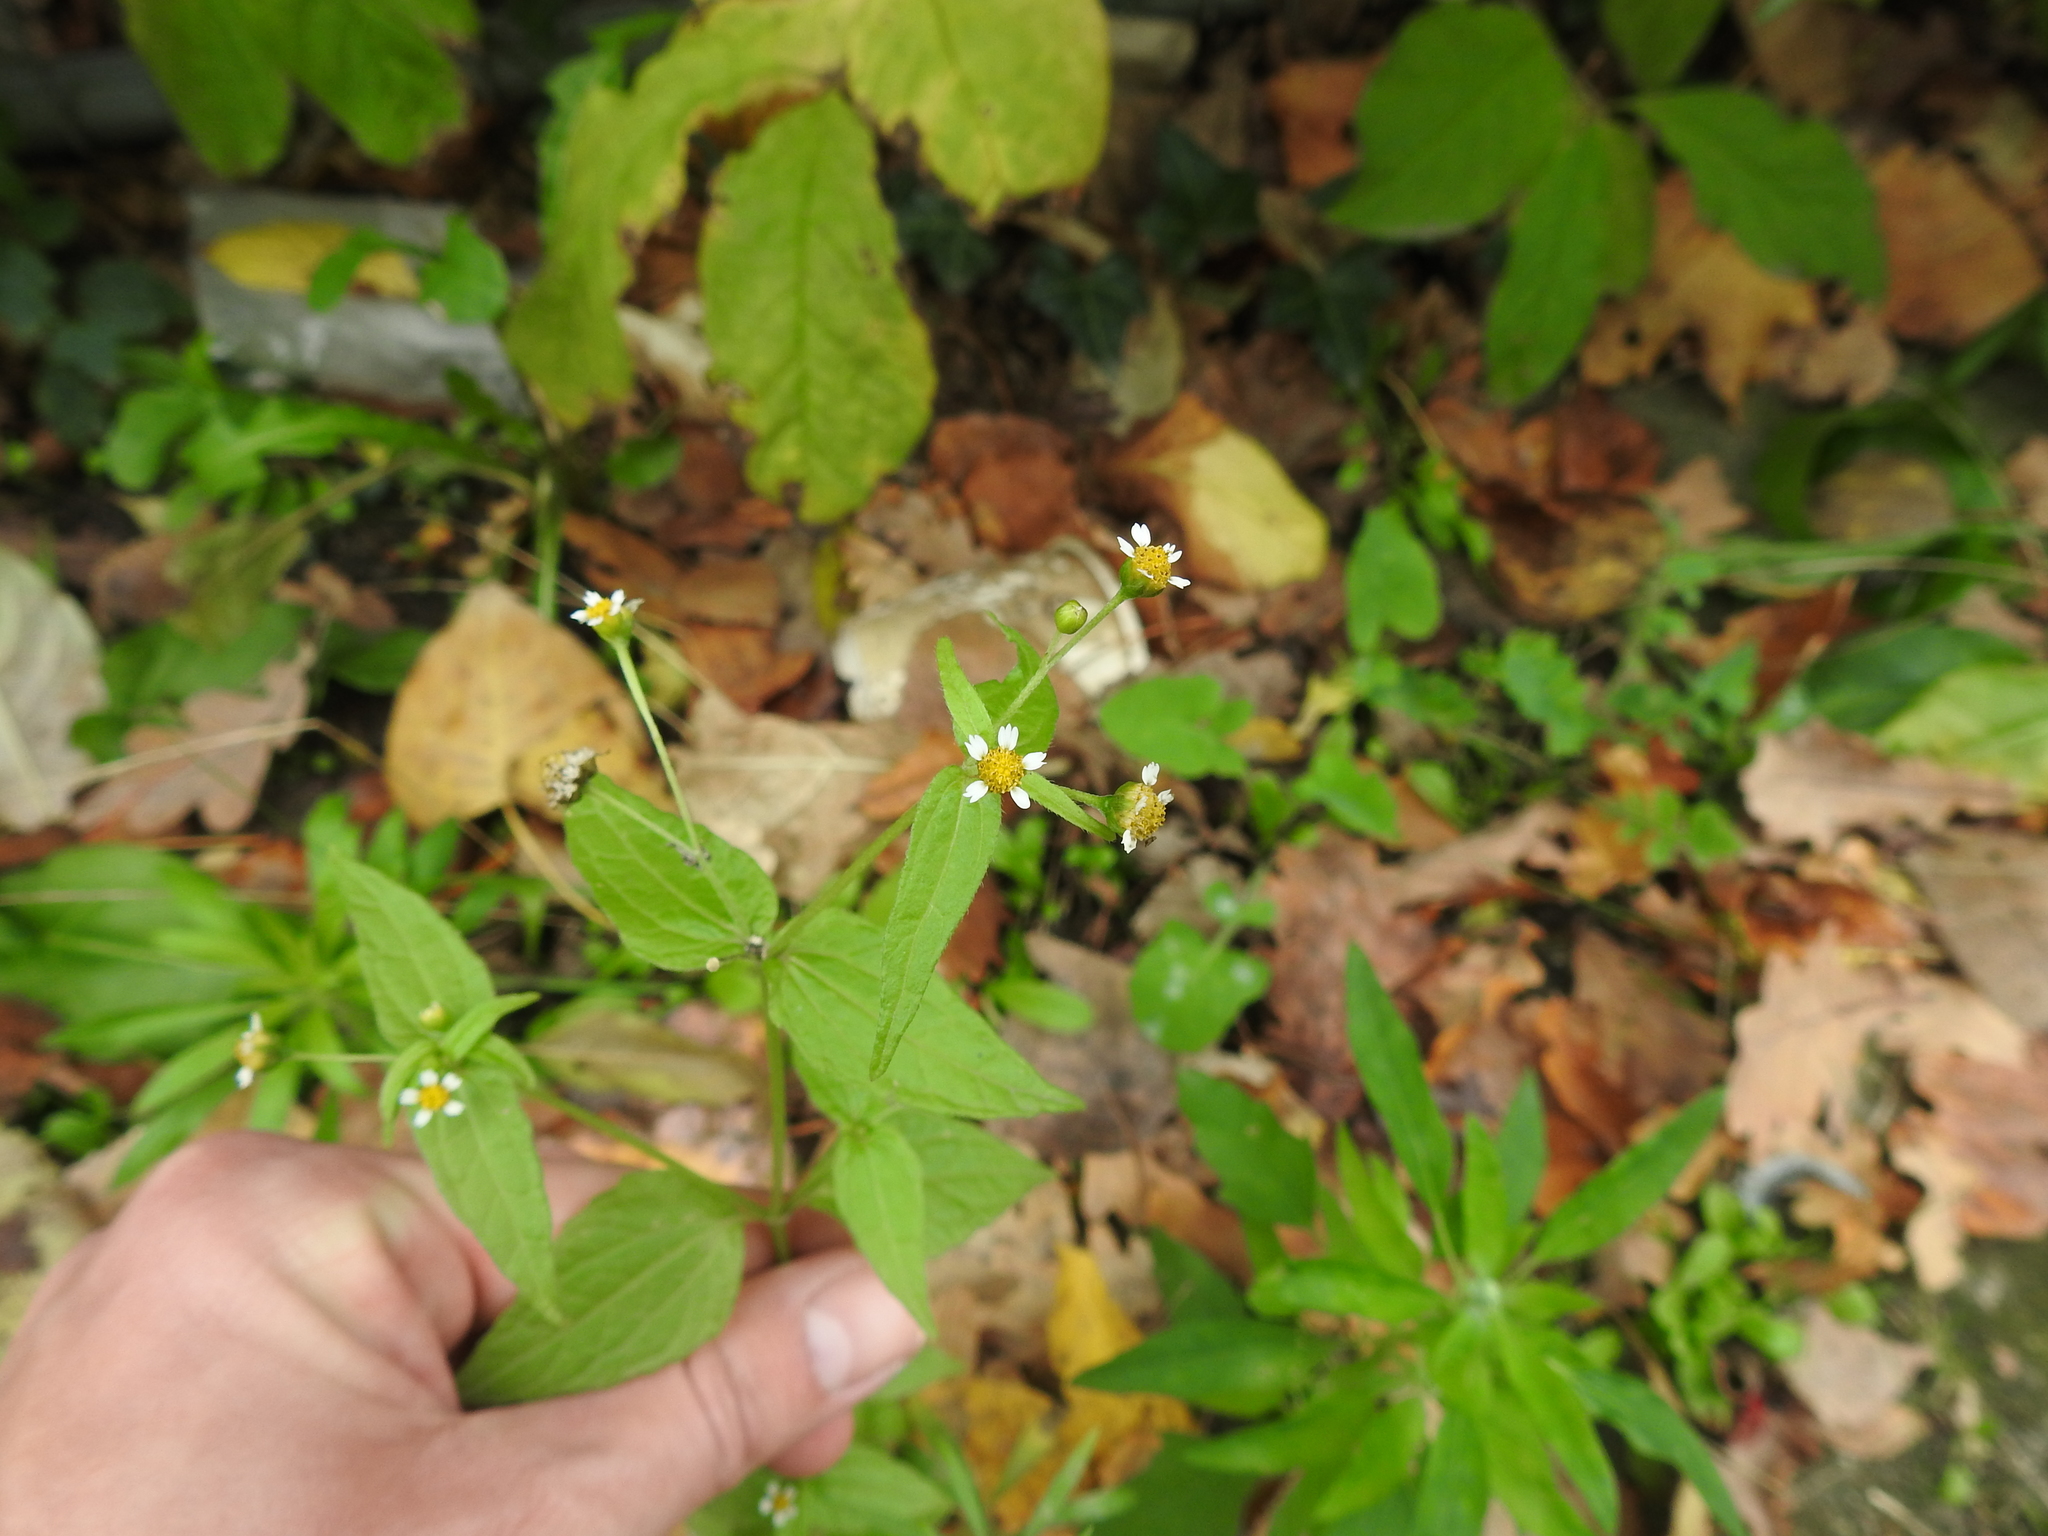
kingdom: Plantae
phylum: Tracheophyta
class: Magnoliopsida
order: Asterales
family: Asteraceae
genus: Galinsoga
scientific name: Galinsoga parviflora
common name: Gallant soldier
